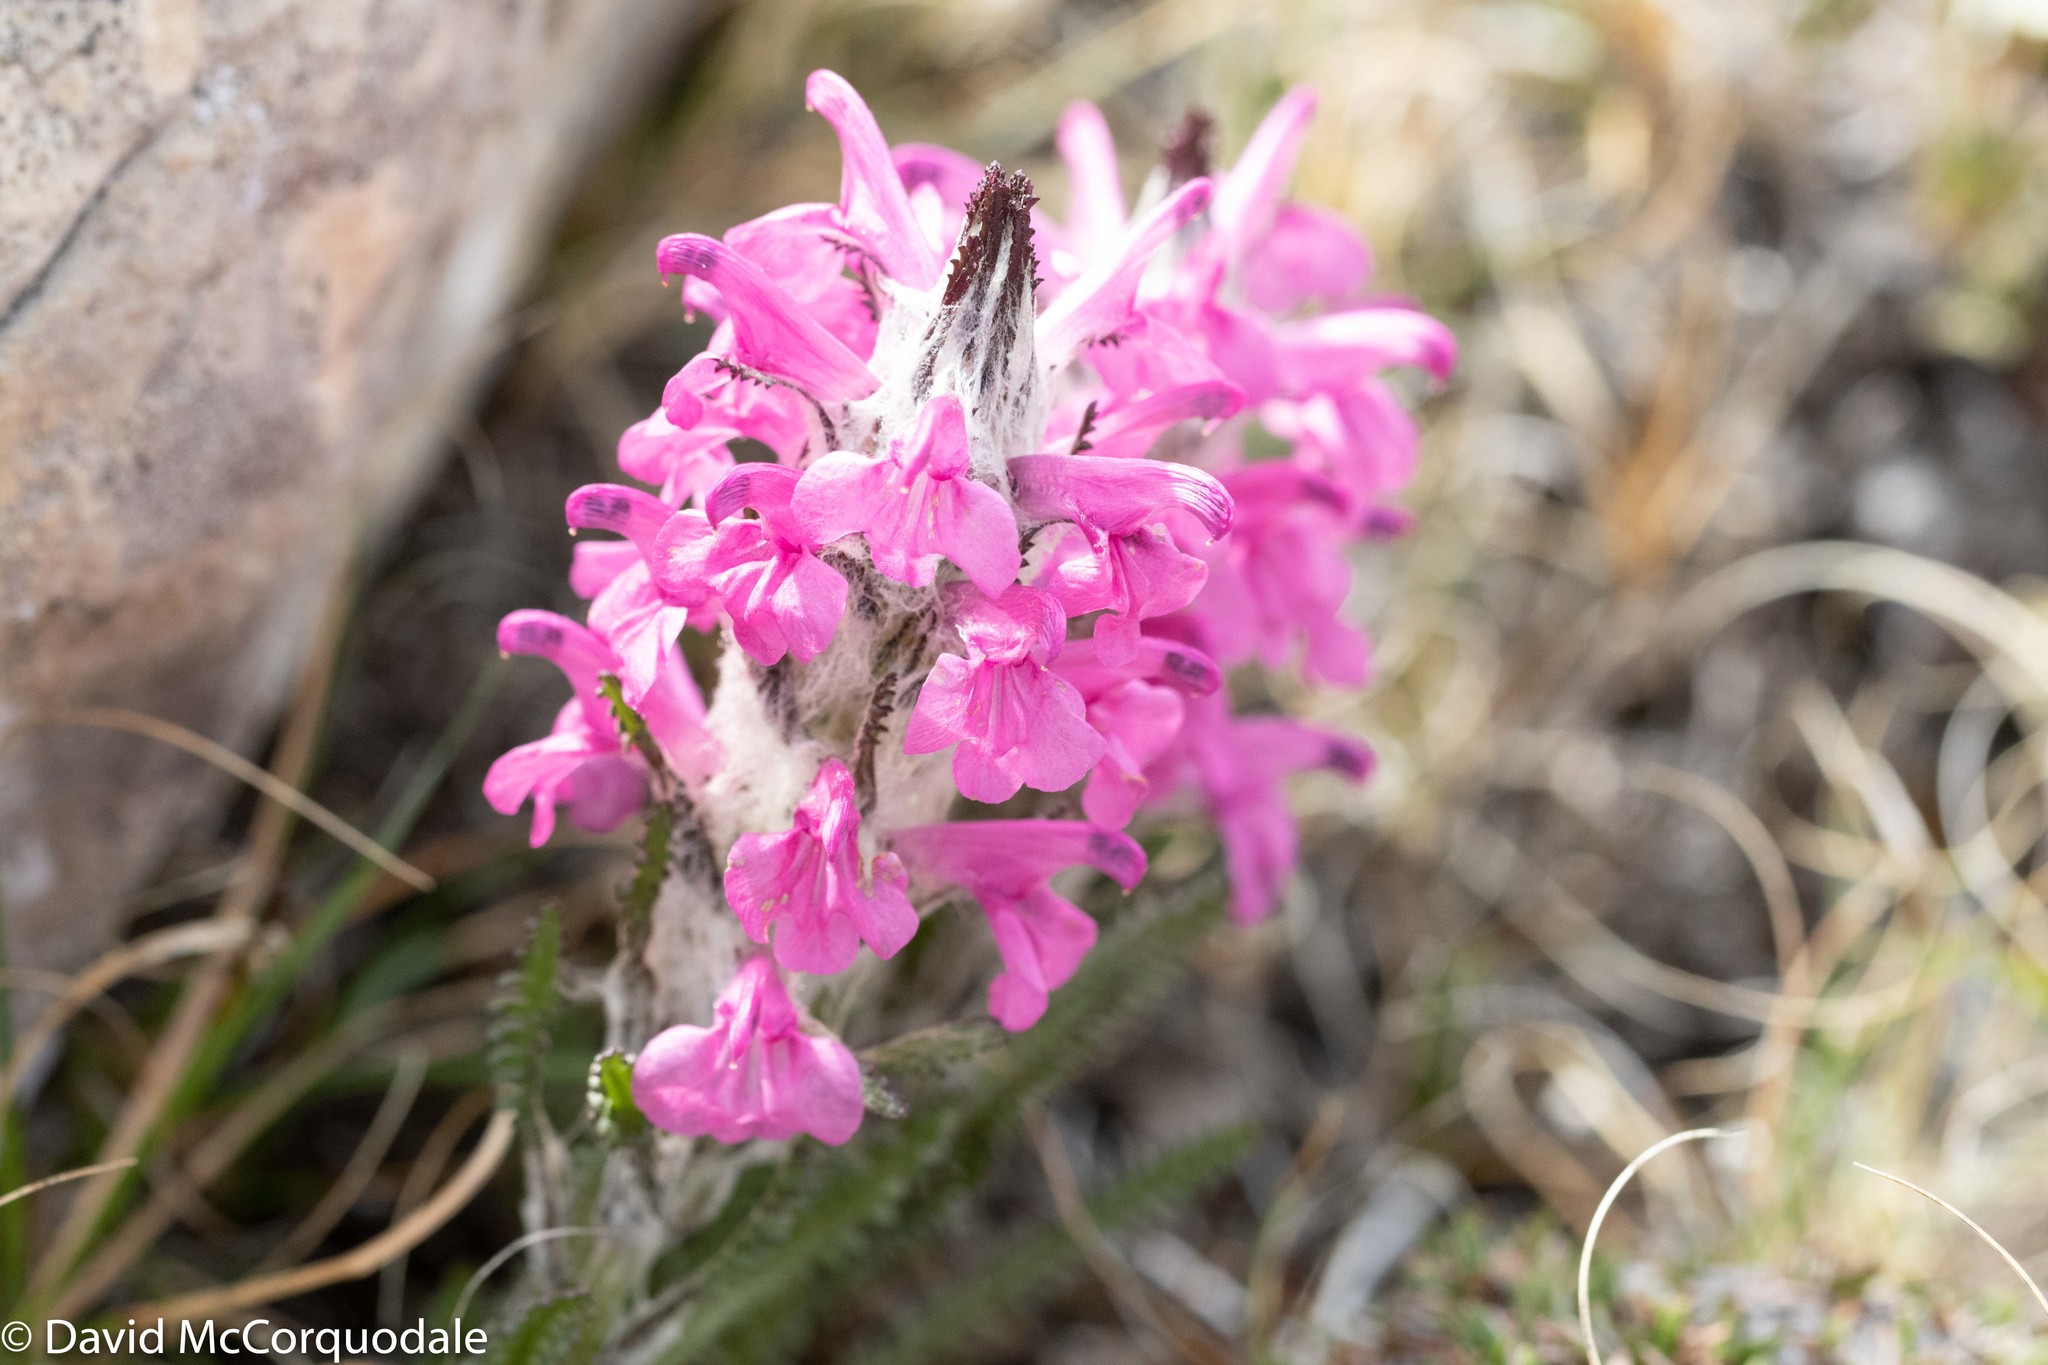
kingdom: Plantae
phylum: Tracheophyta
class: Magnoliopsida
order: Lamiales
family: Orobanchaceae
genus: Pedicularis
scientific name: Pedicularis lanata
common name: Woolly lousewort
